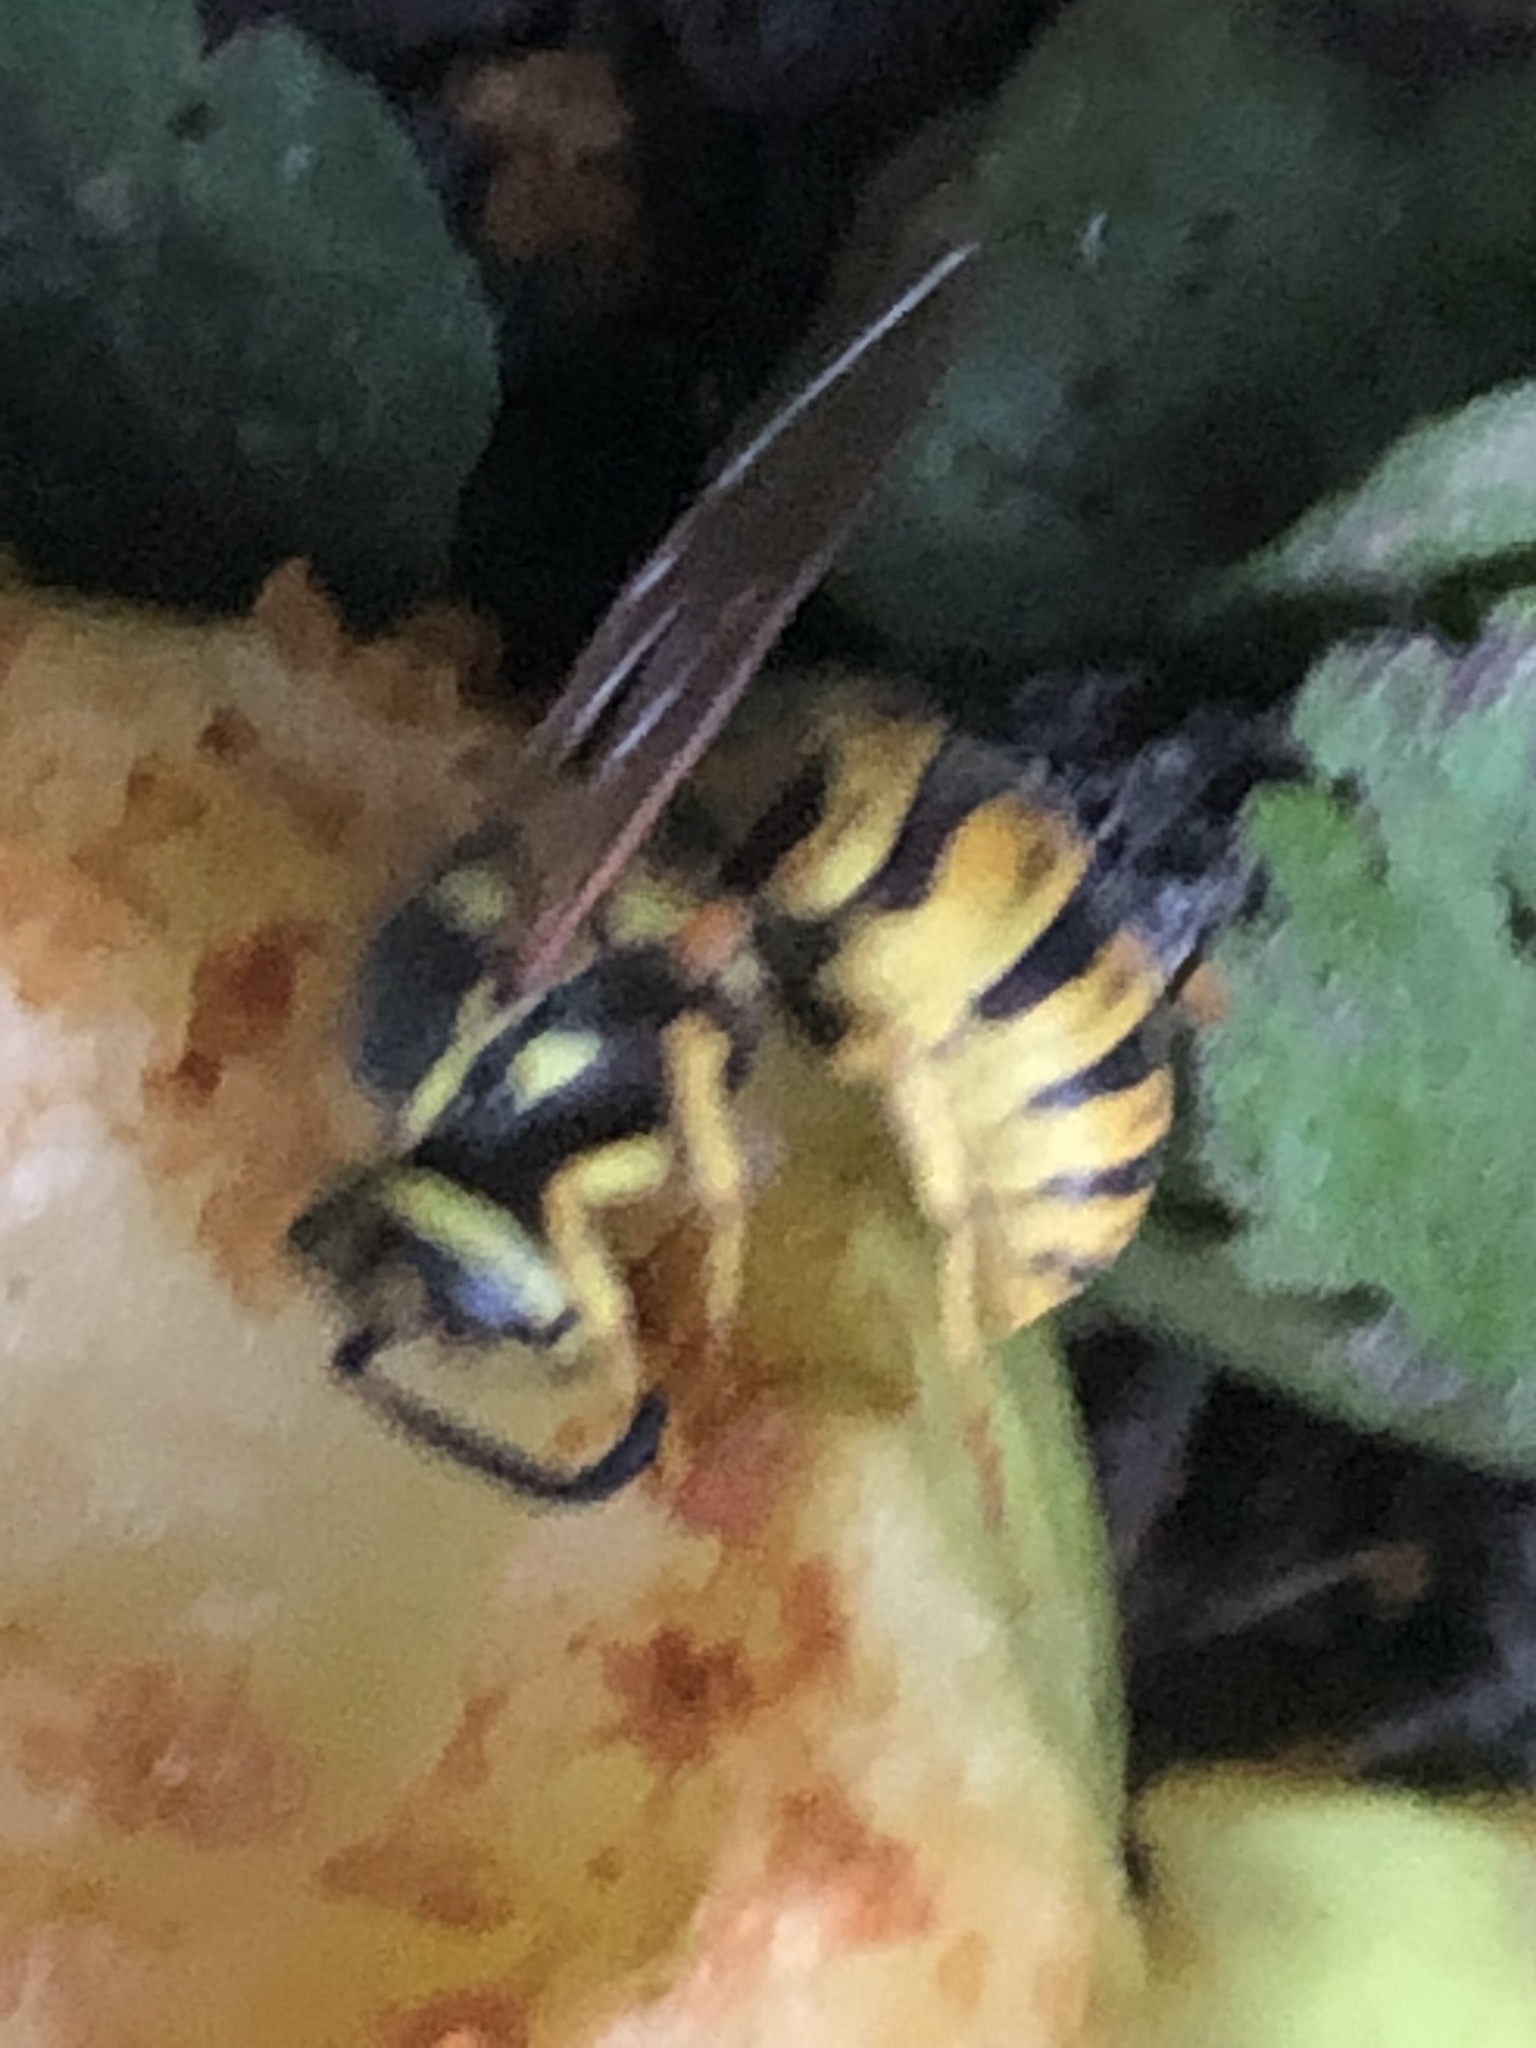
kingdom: Animalia
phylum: Arthropoda
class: Insecta
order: Hymenoptera
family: Vespidae
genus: Vespula
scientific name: Vespula germanica
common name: German wasp
